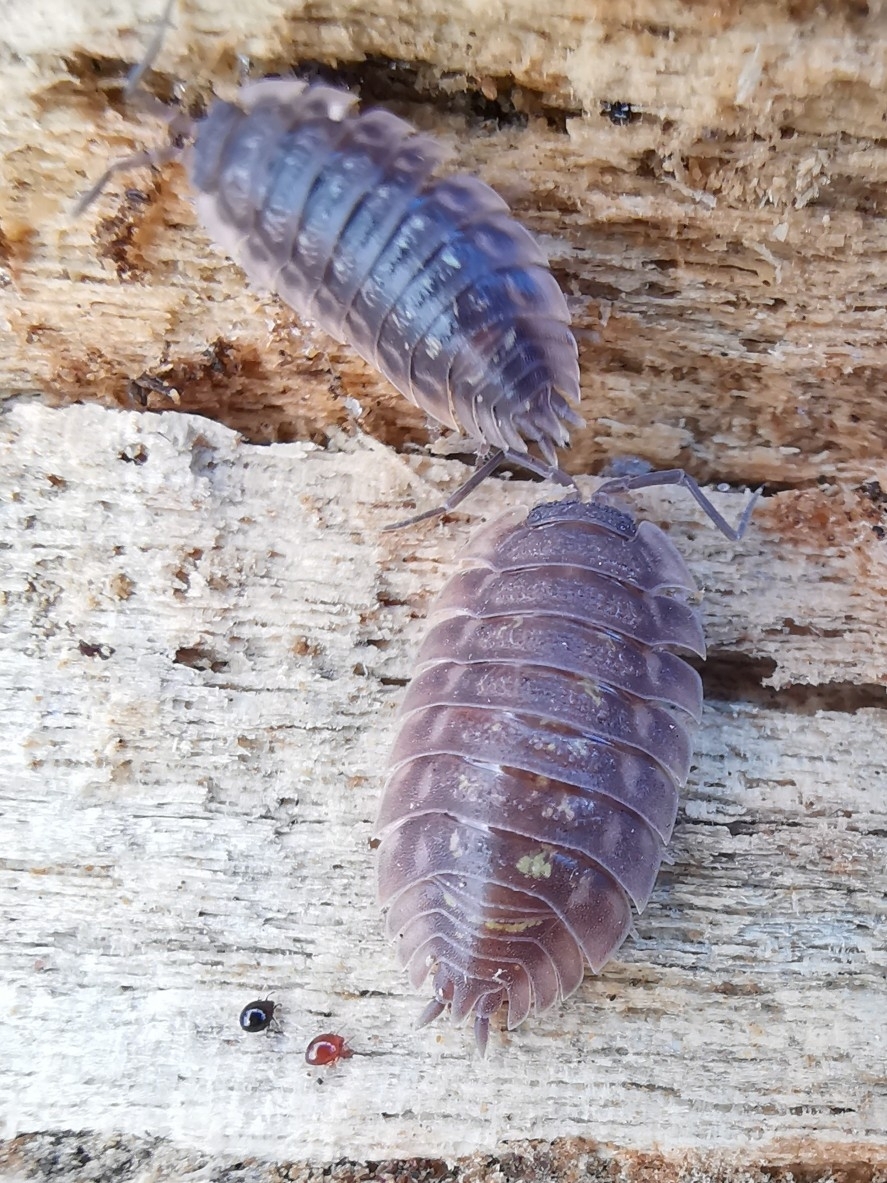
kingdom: Animalia
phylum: Arthropoda
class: Malacostraca
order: Isopoda
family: Oniscidae
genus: Oniscus
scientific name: Oniscus asellus
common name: Common shiny woodlouse
